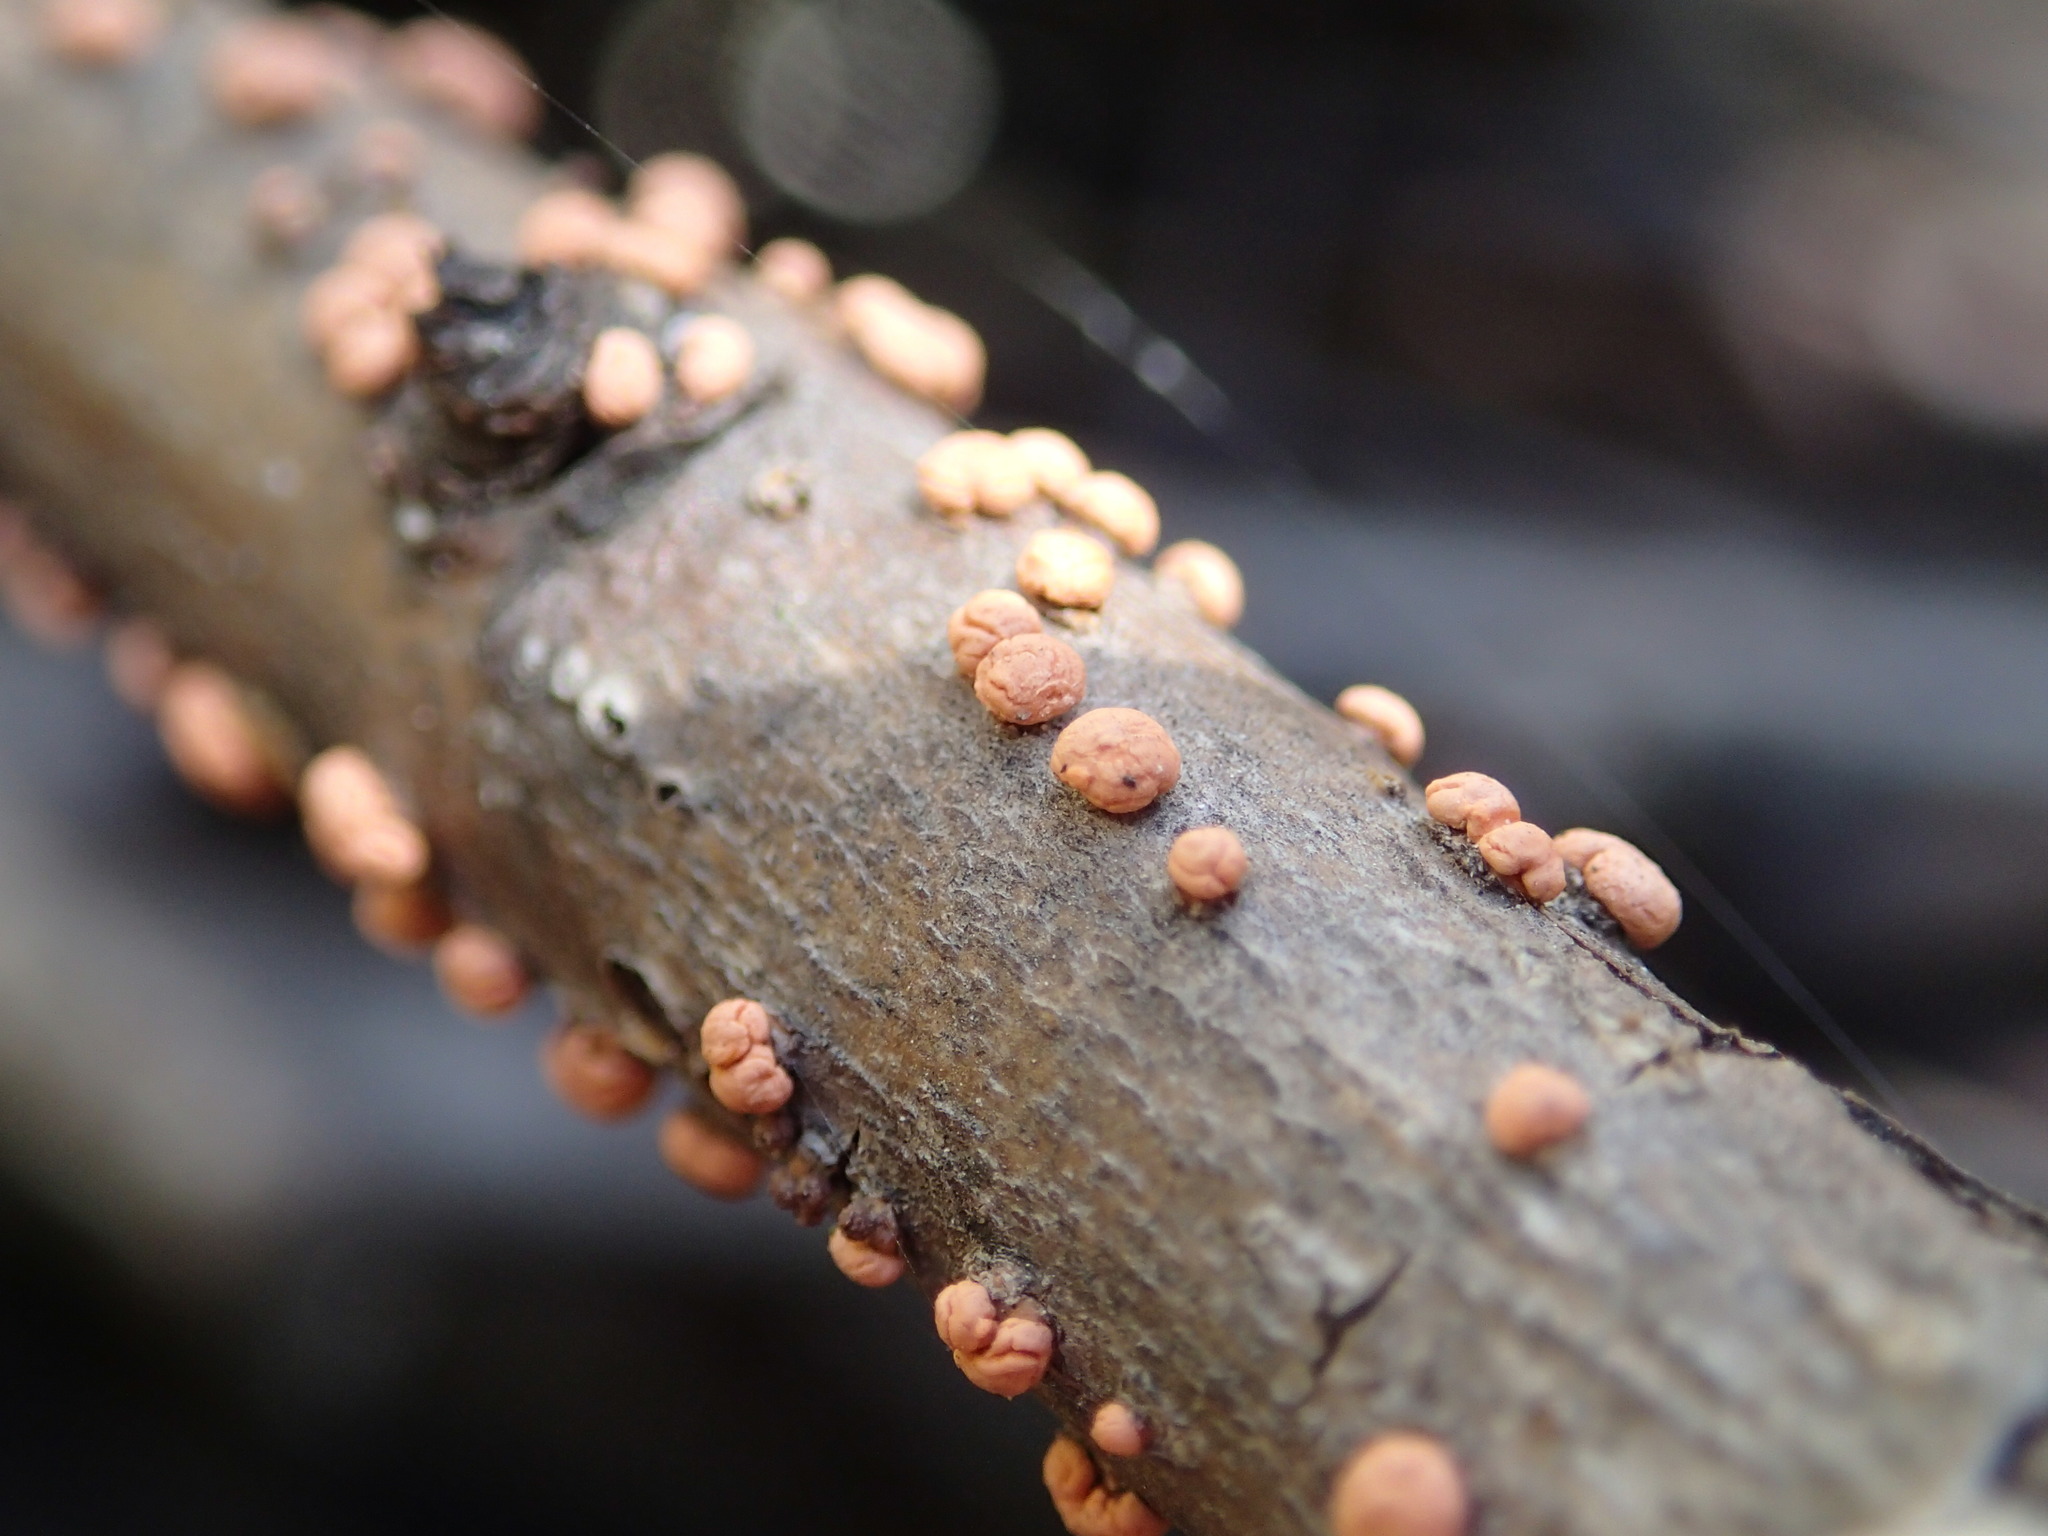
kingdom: Fungi
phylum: Ascomycota
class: Sordariomycetes
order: Hypocreales
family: Nectriaceae
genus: Nectria
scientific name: Nectria cinnabarina
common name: Coral spot
